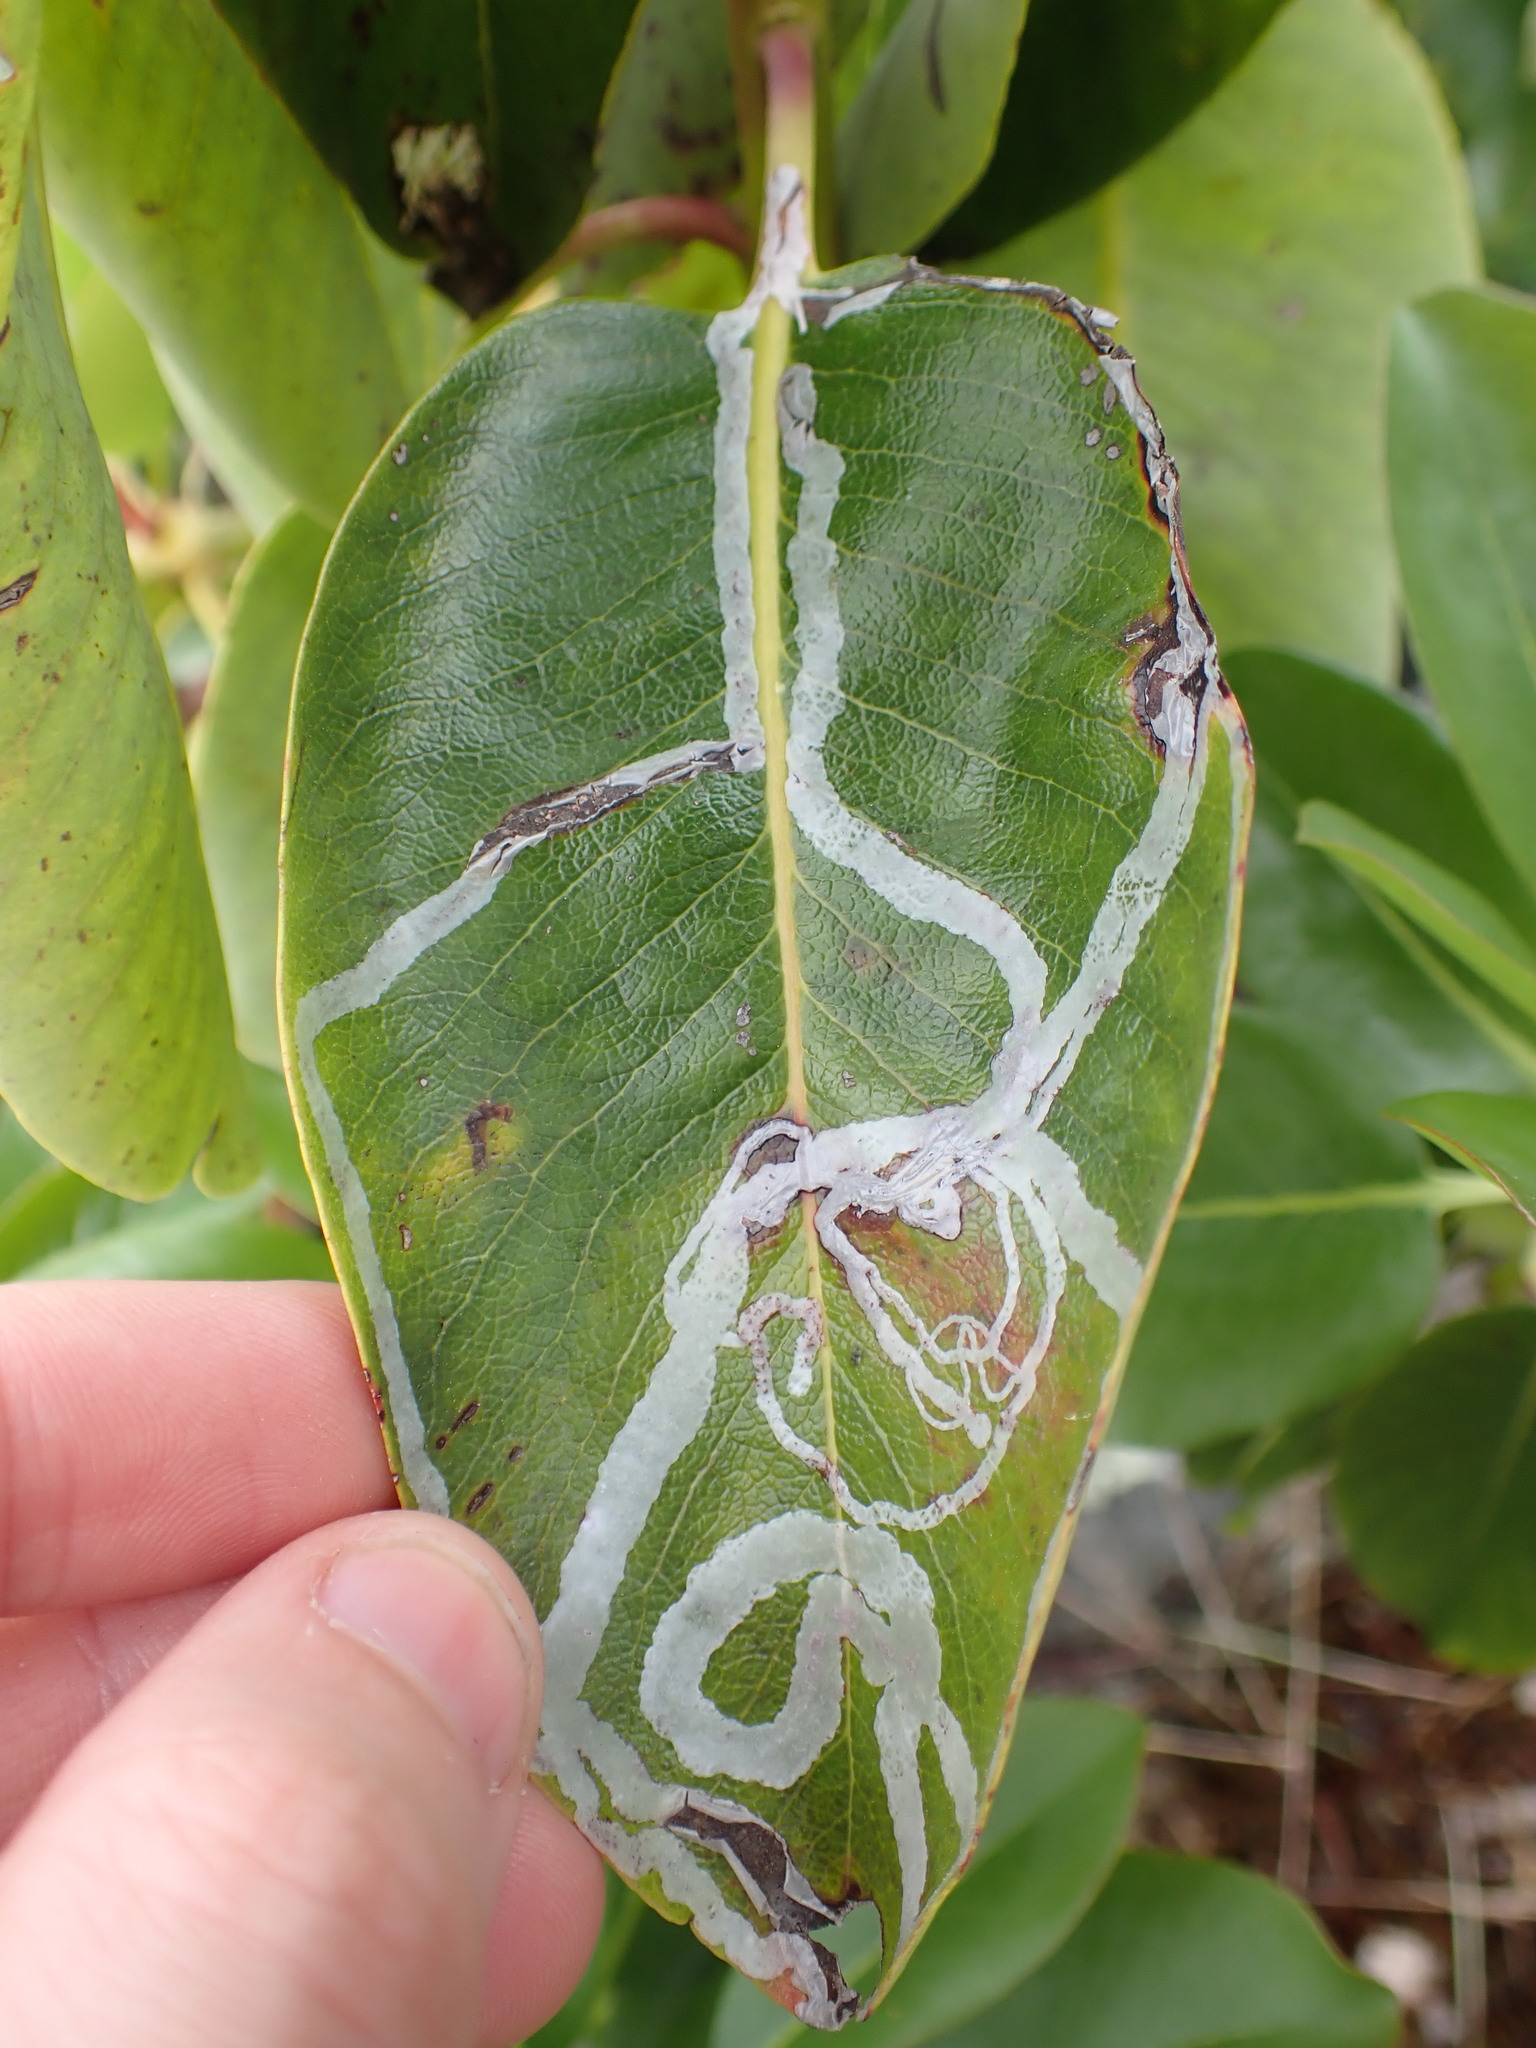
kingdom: Animalia
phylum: Arthropoda
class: Insecta
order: Lepidoptera
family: Gracillariidae
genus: Marmara
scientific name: Marmara arbutiella
